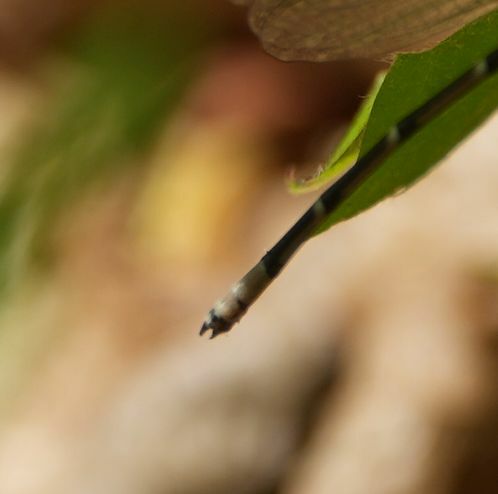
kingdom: Animalia
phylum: Arthropoda
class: Insecta
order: Odonata
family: Coenagrionidae
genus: Chromagrion
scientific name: Chromagrion conditum
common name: Aurora damsel
